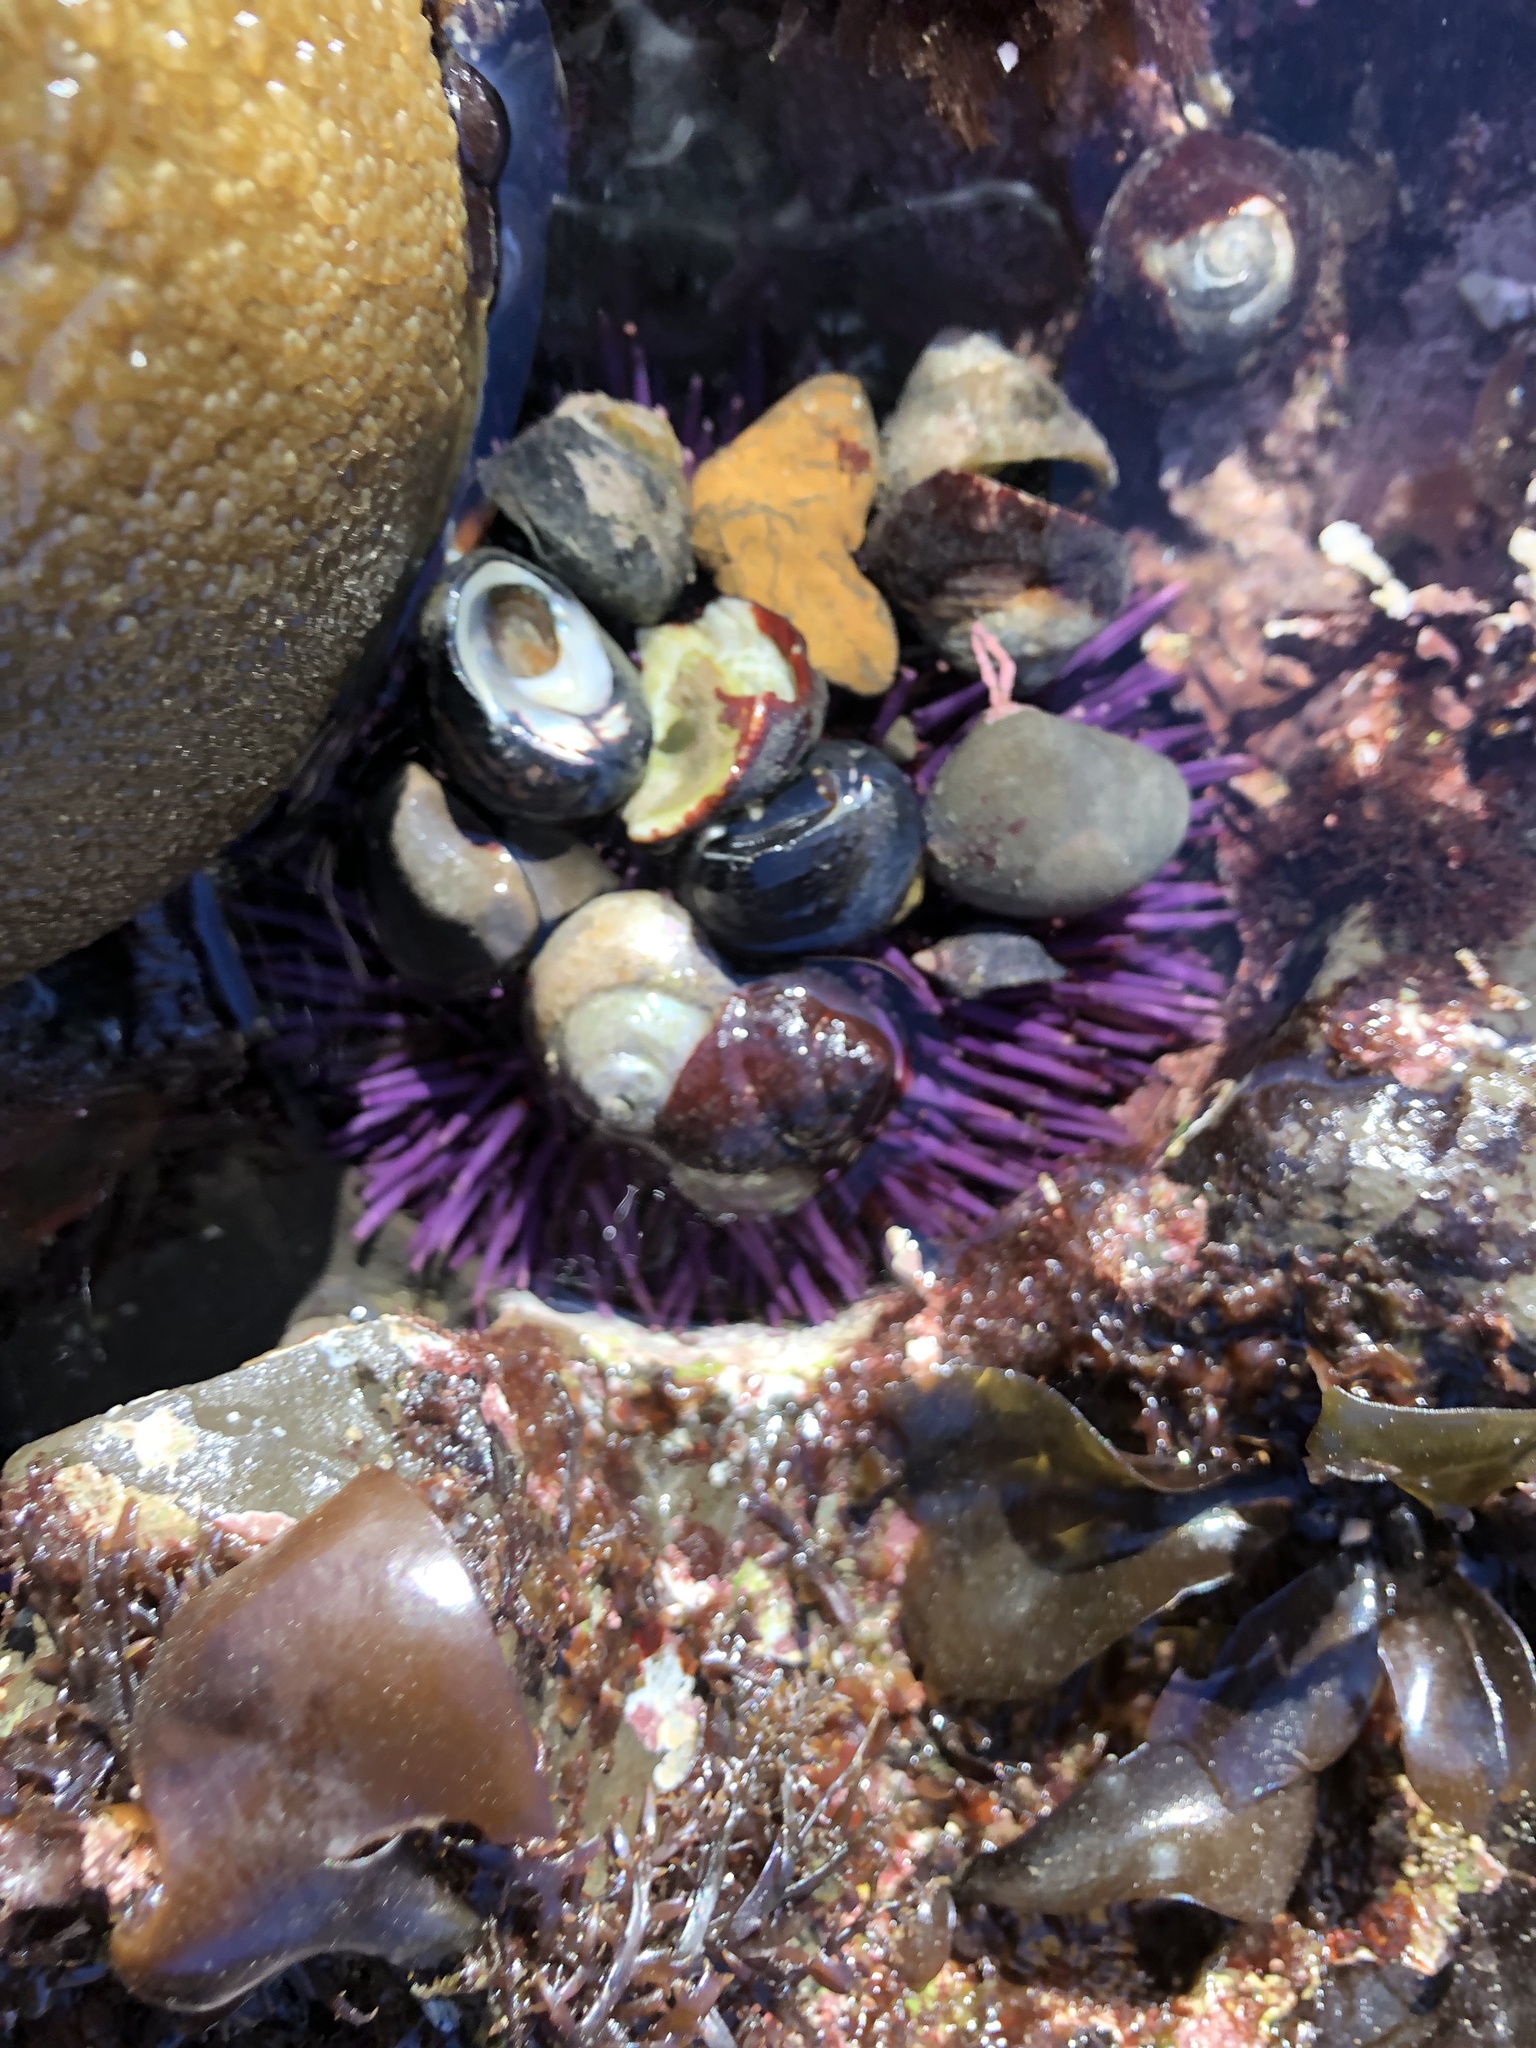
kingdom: Animalia
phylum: Echinodermata
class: Echinoidea
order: Camarodonta
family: Strongylocentrotidae
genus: Strongylocentrotus
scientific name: Strongylocentrotus purpuratus
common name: Purple sea urchin
